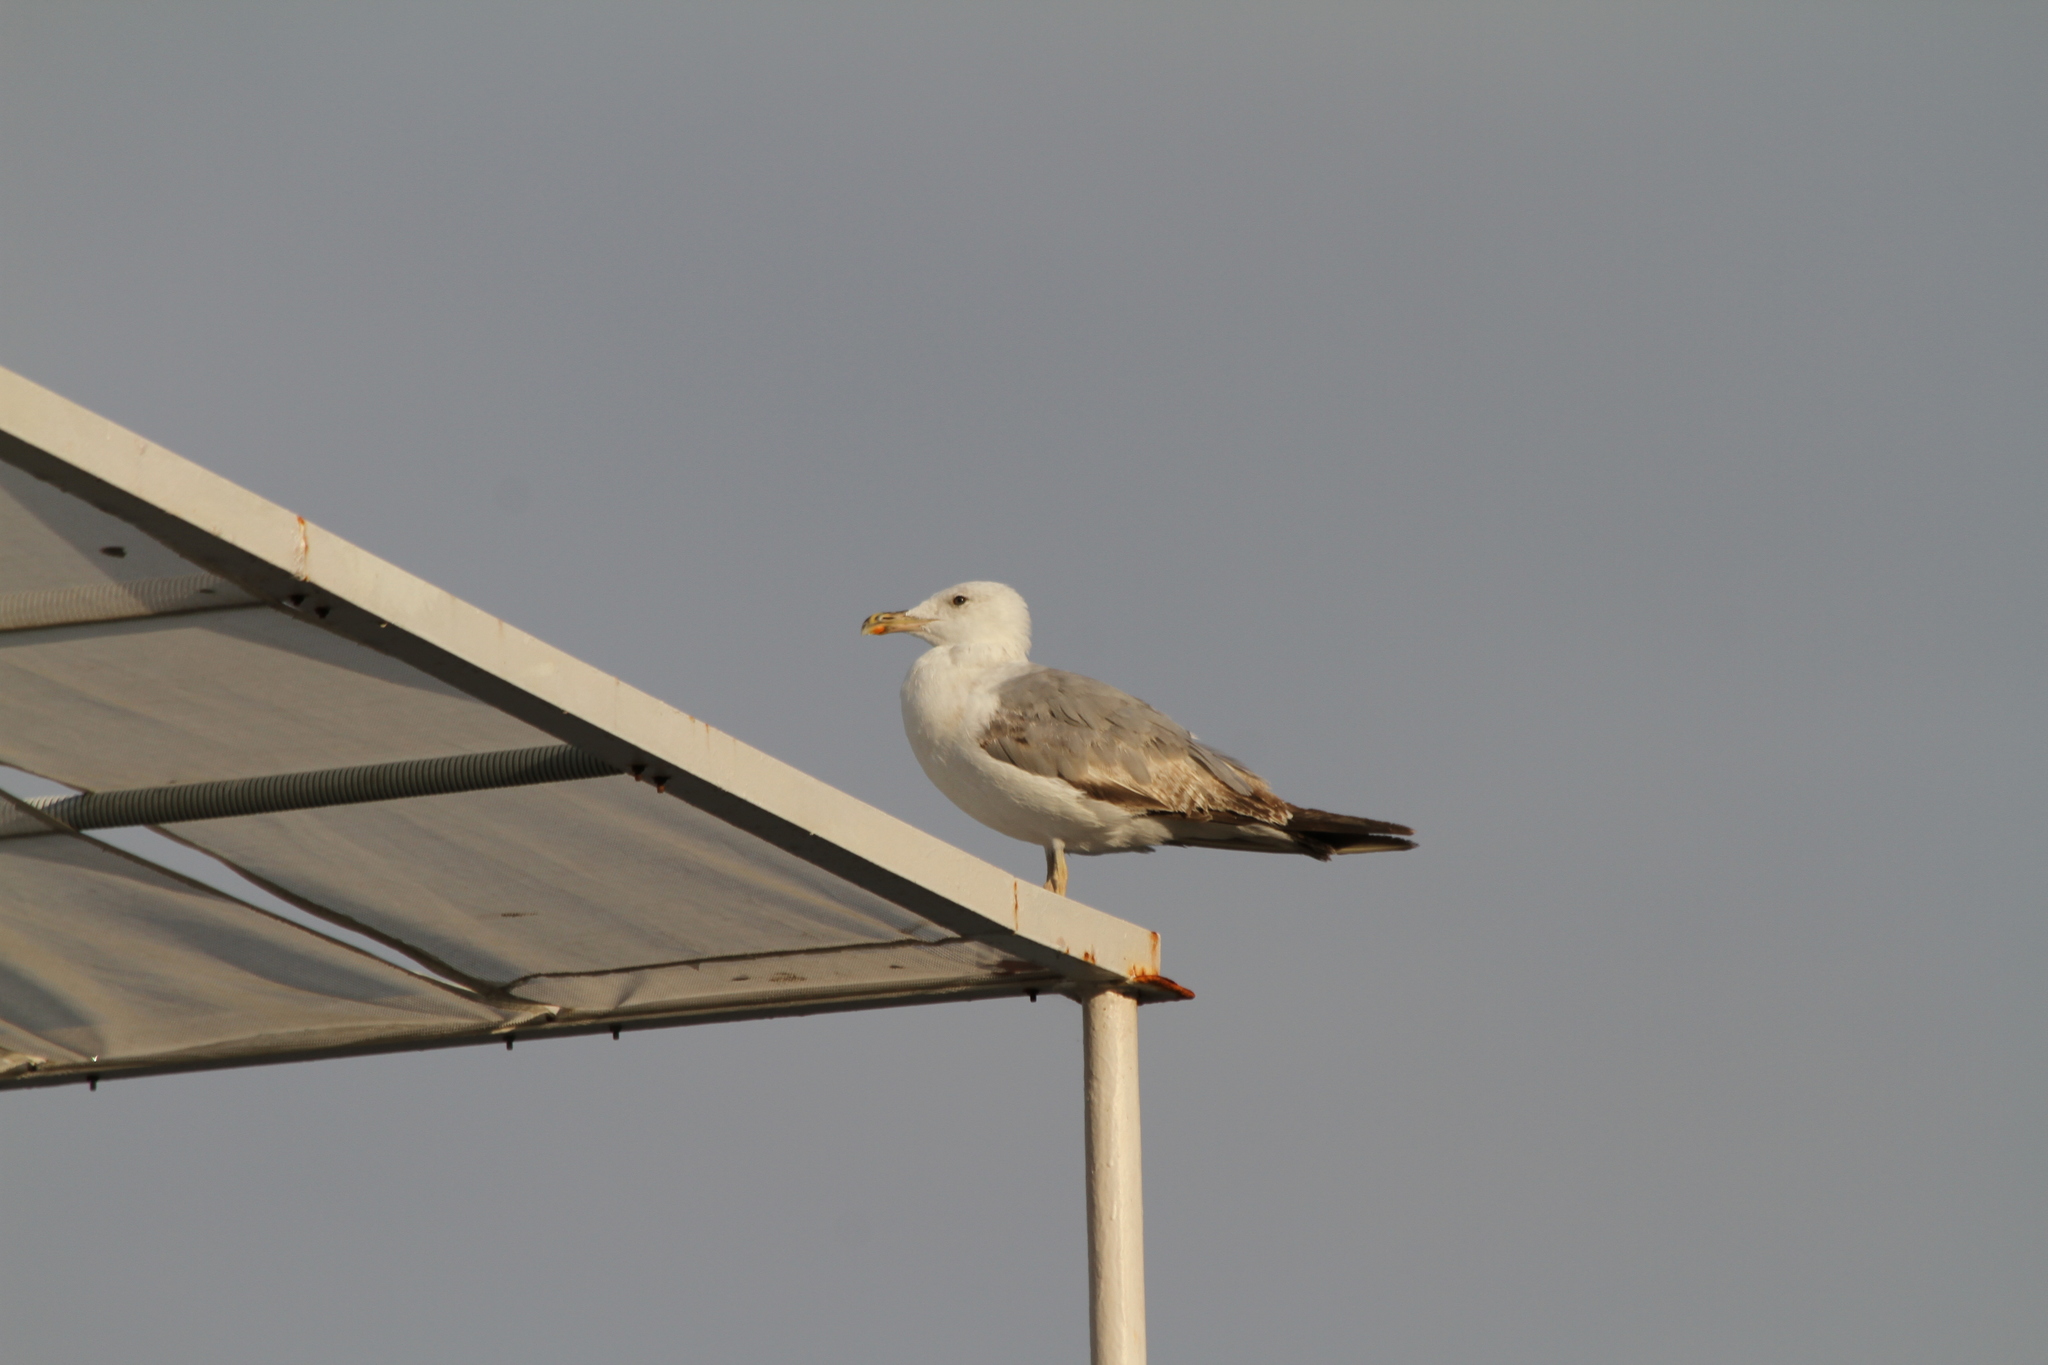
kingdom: Animalia
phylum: Chordata
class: Aves
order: Charadriiformes
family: Laridae
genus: Larus
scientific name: Larus michahellis
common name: Yellow-legged gull
